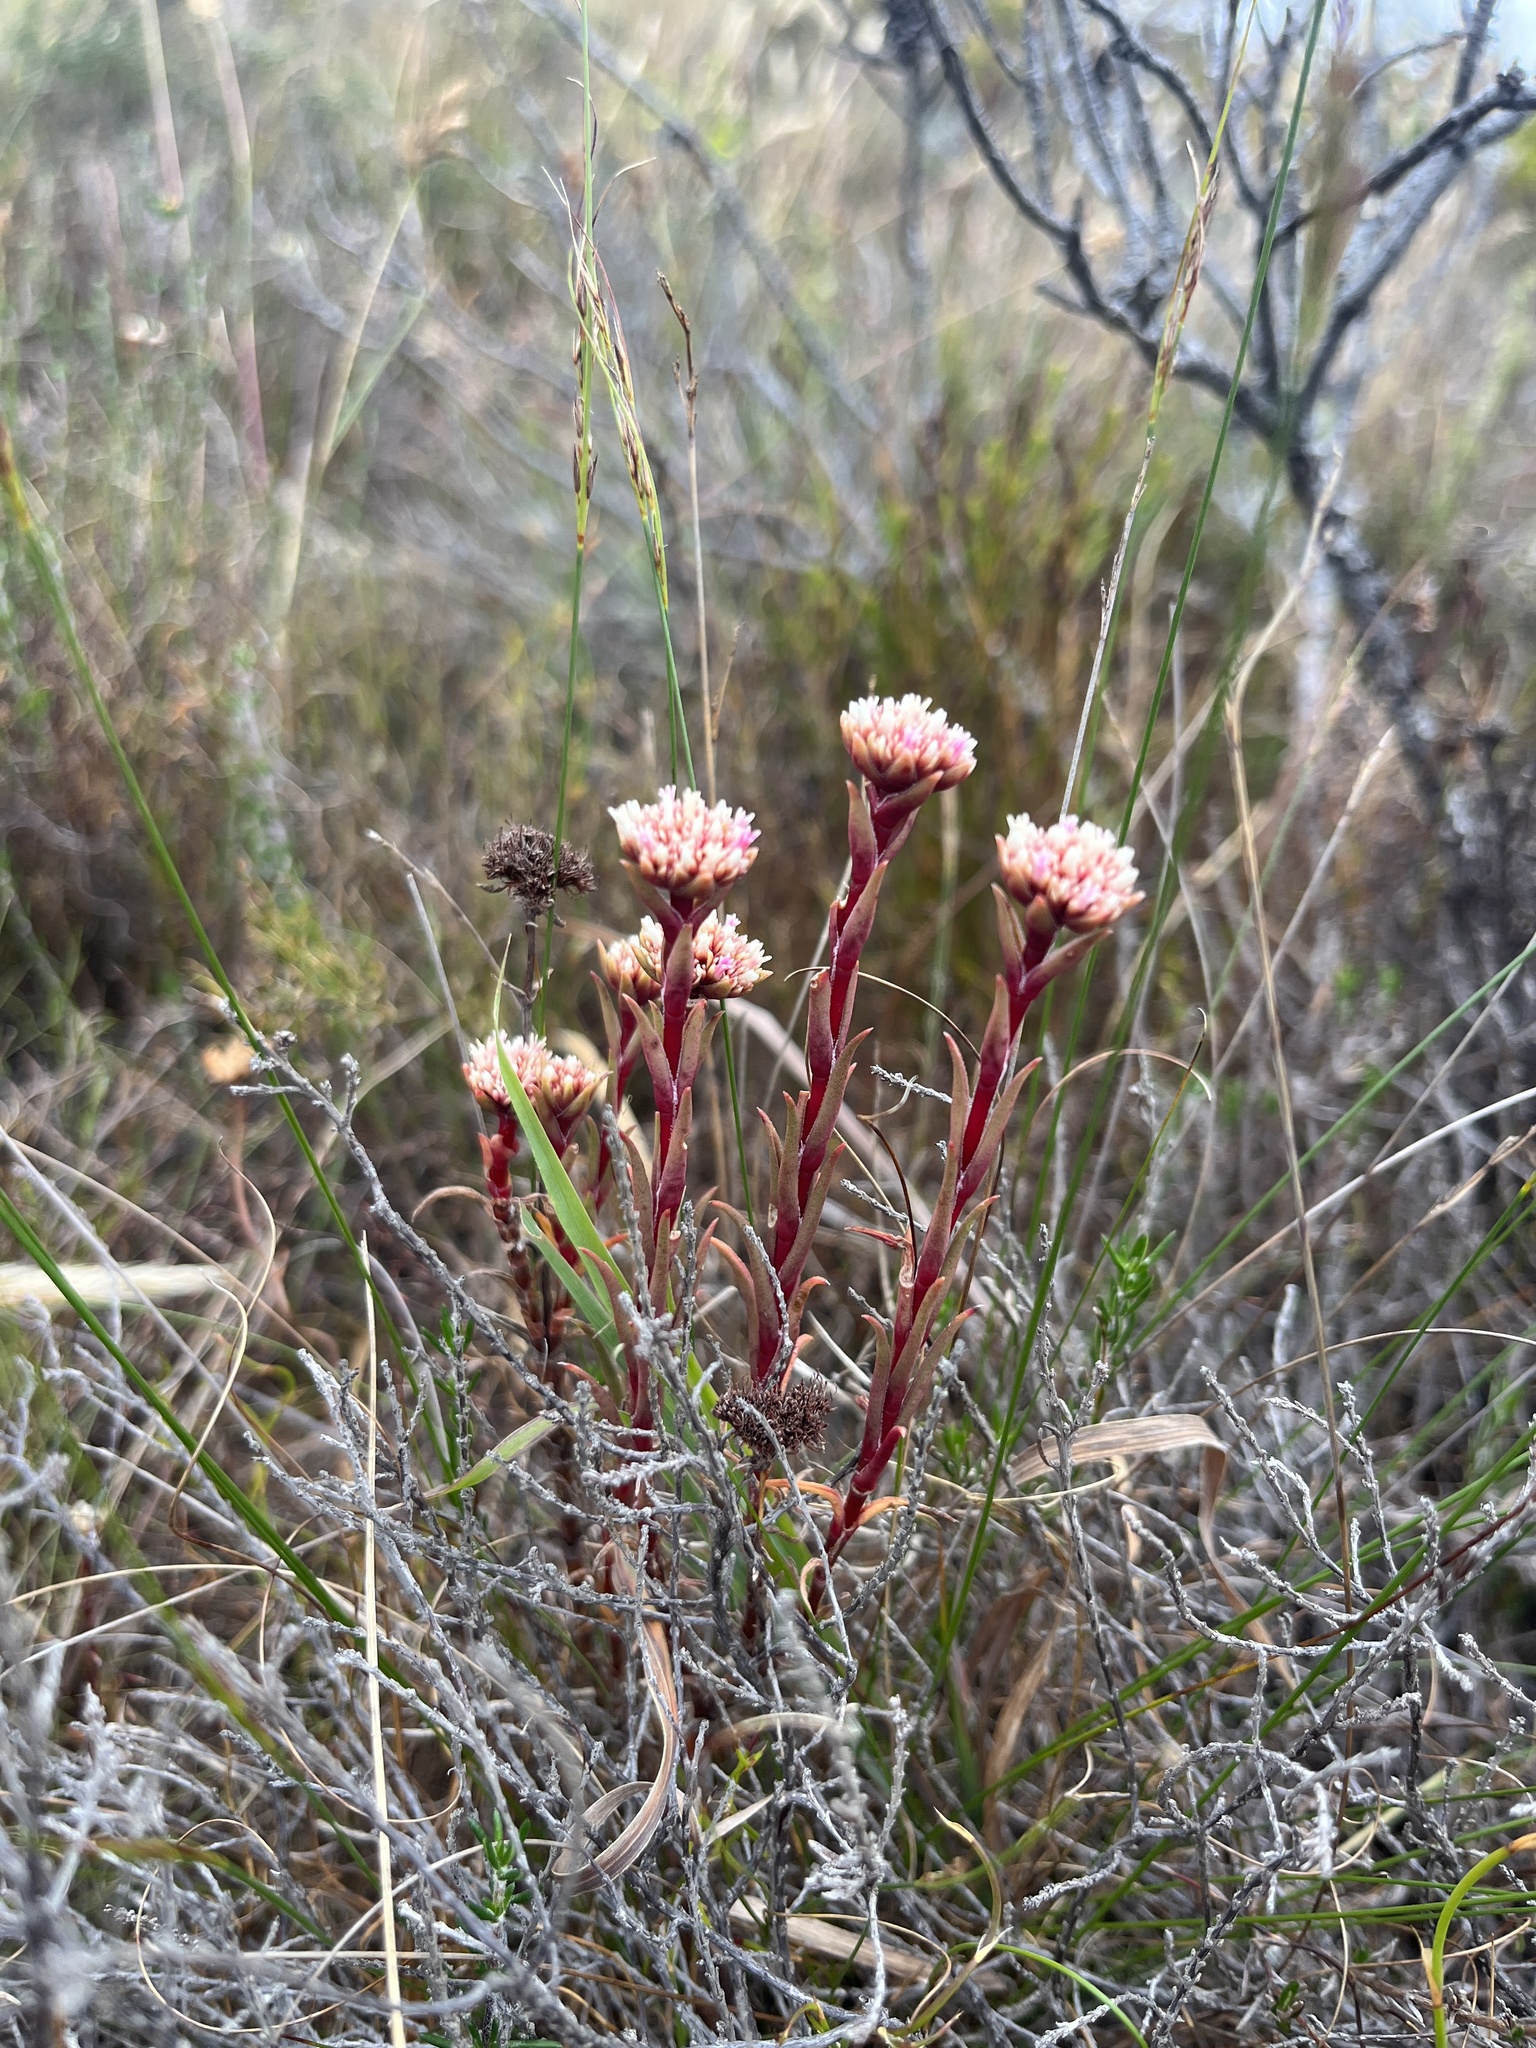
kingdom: Plantae
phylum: Tracheophyta
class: Magnoliopsida
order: Saxifragales
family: Crassulaceae
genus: Crassula
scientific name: Crassula subulata
